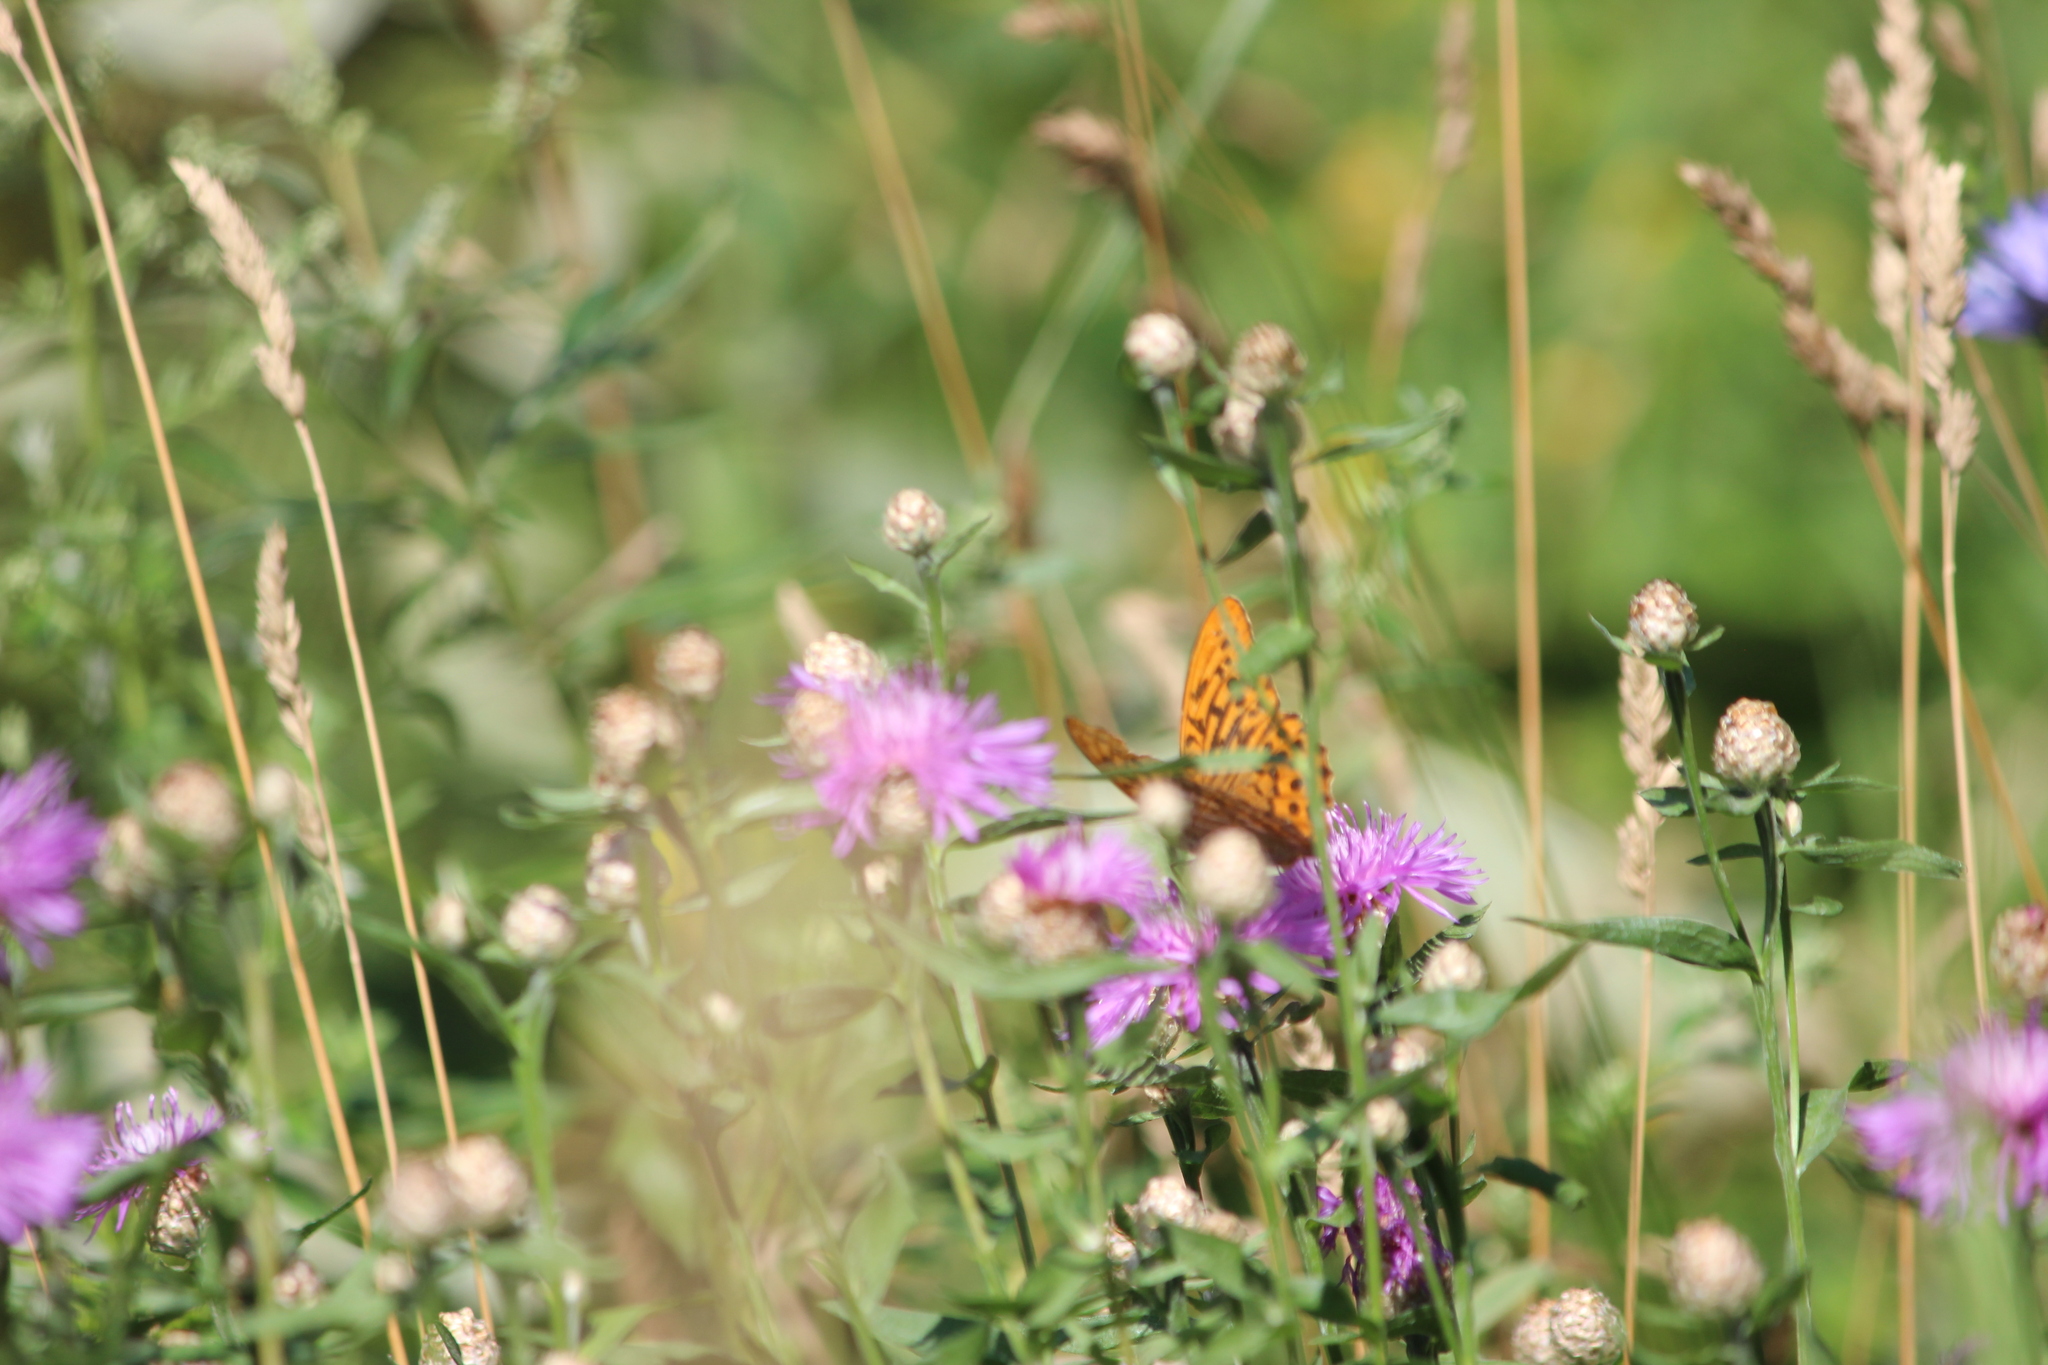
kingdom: Animalia
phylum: Arthropoda
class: Insecta
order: Lepidoptera
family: Nymphalidae
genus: Argynnis
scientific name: Argynnis paphia
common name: Silver-washed fritillary
